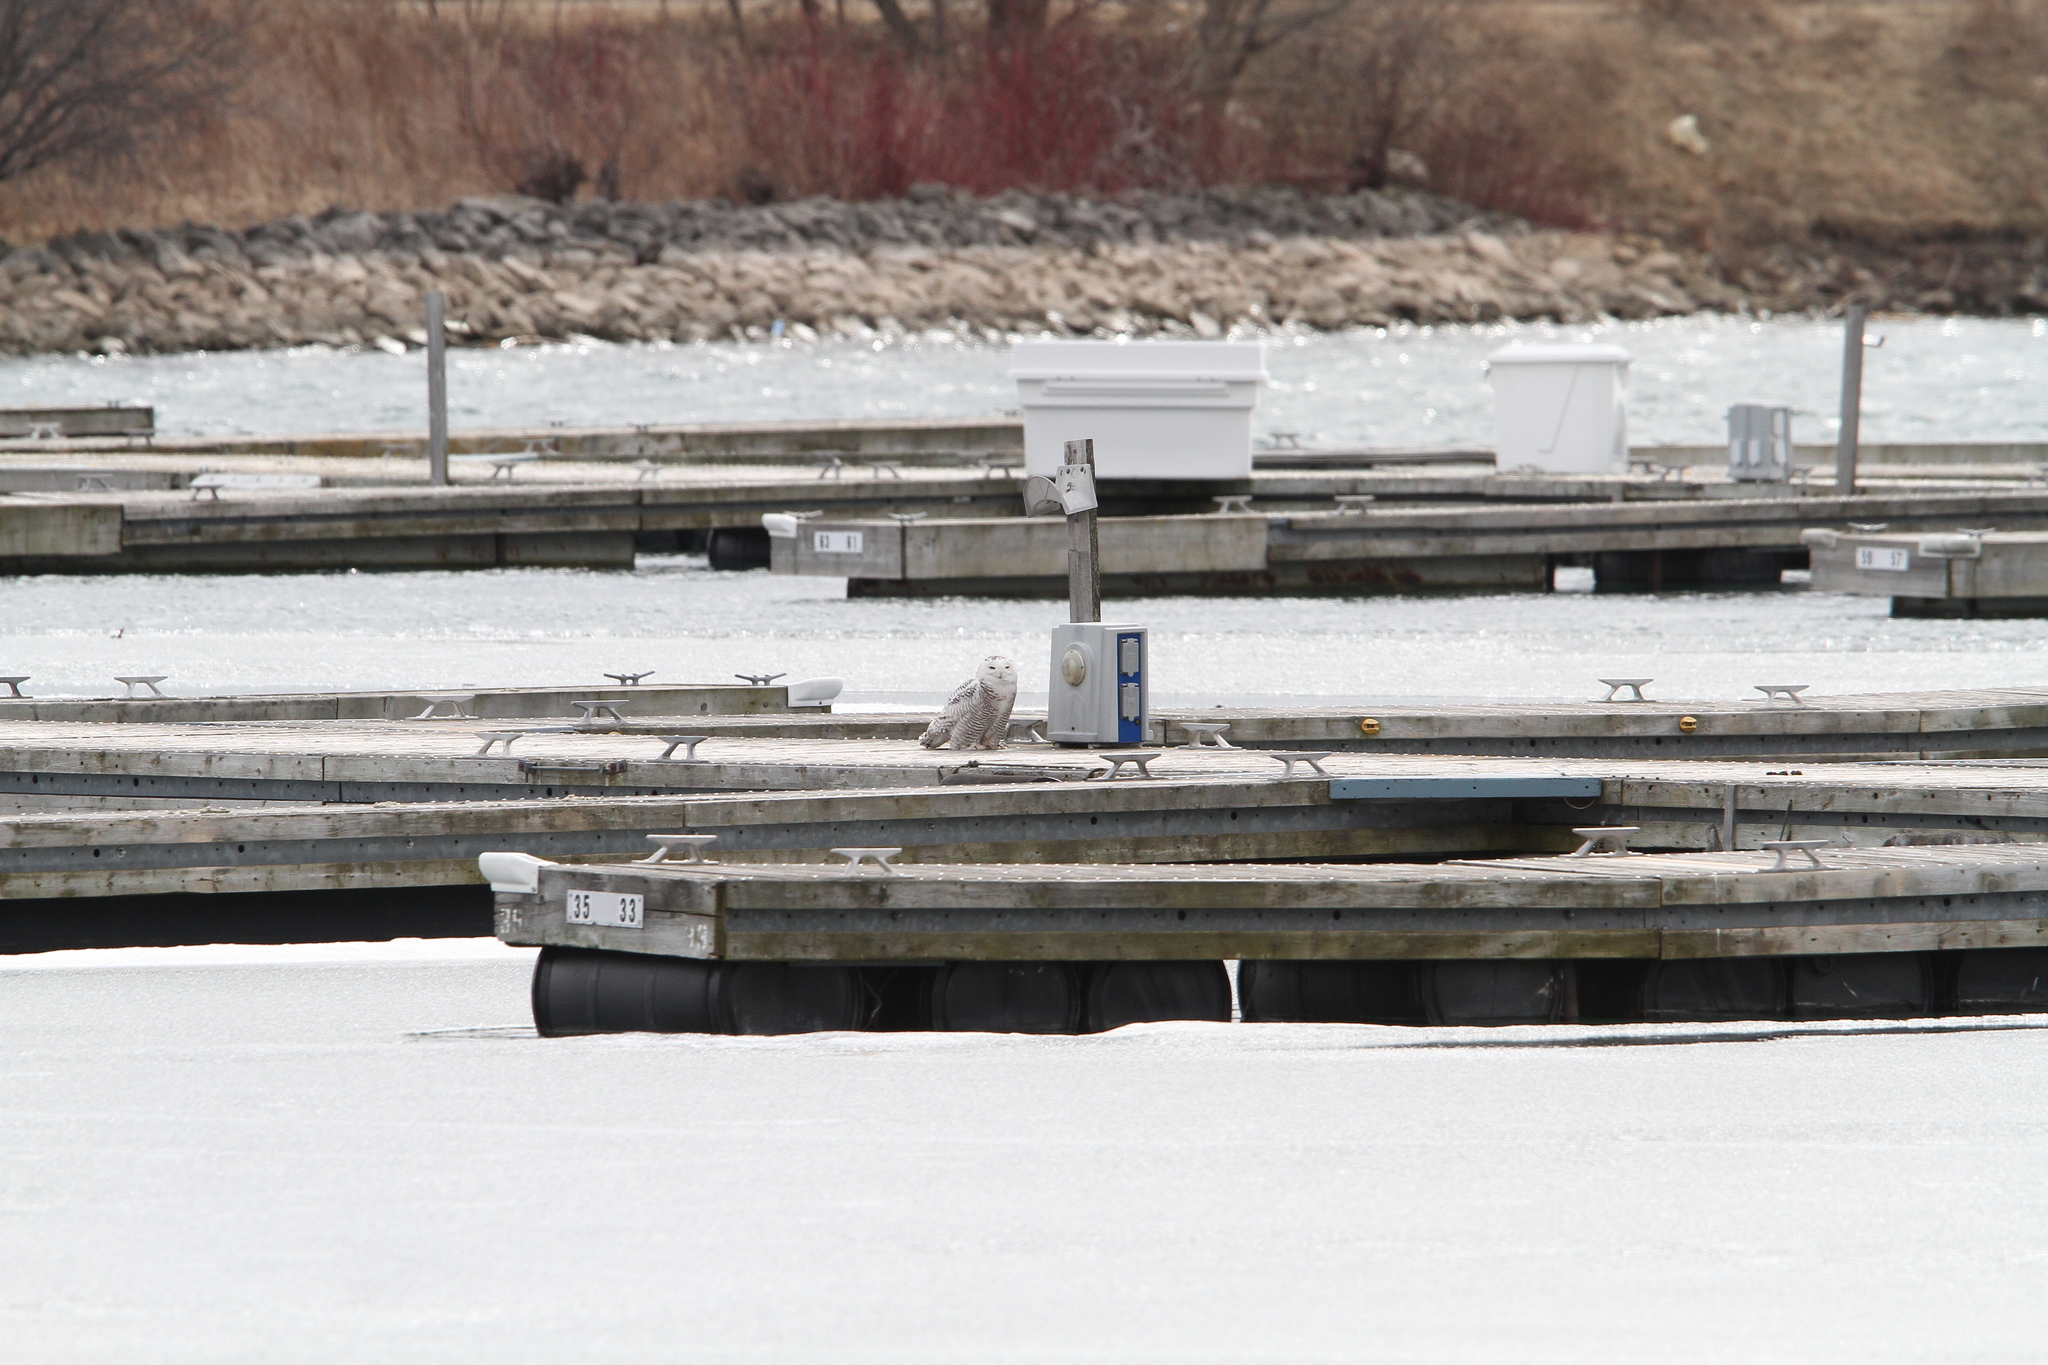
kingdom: Animalia
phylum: Chordata
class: Aves
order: Strigiformes
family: Strigidae
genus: Bubo
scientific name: Bubo scandiacus
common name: Snowy owl
